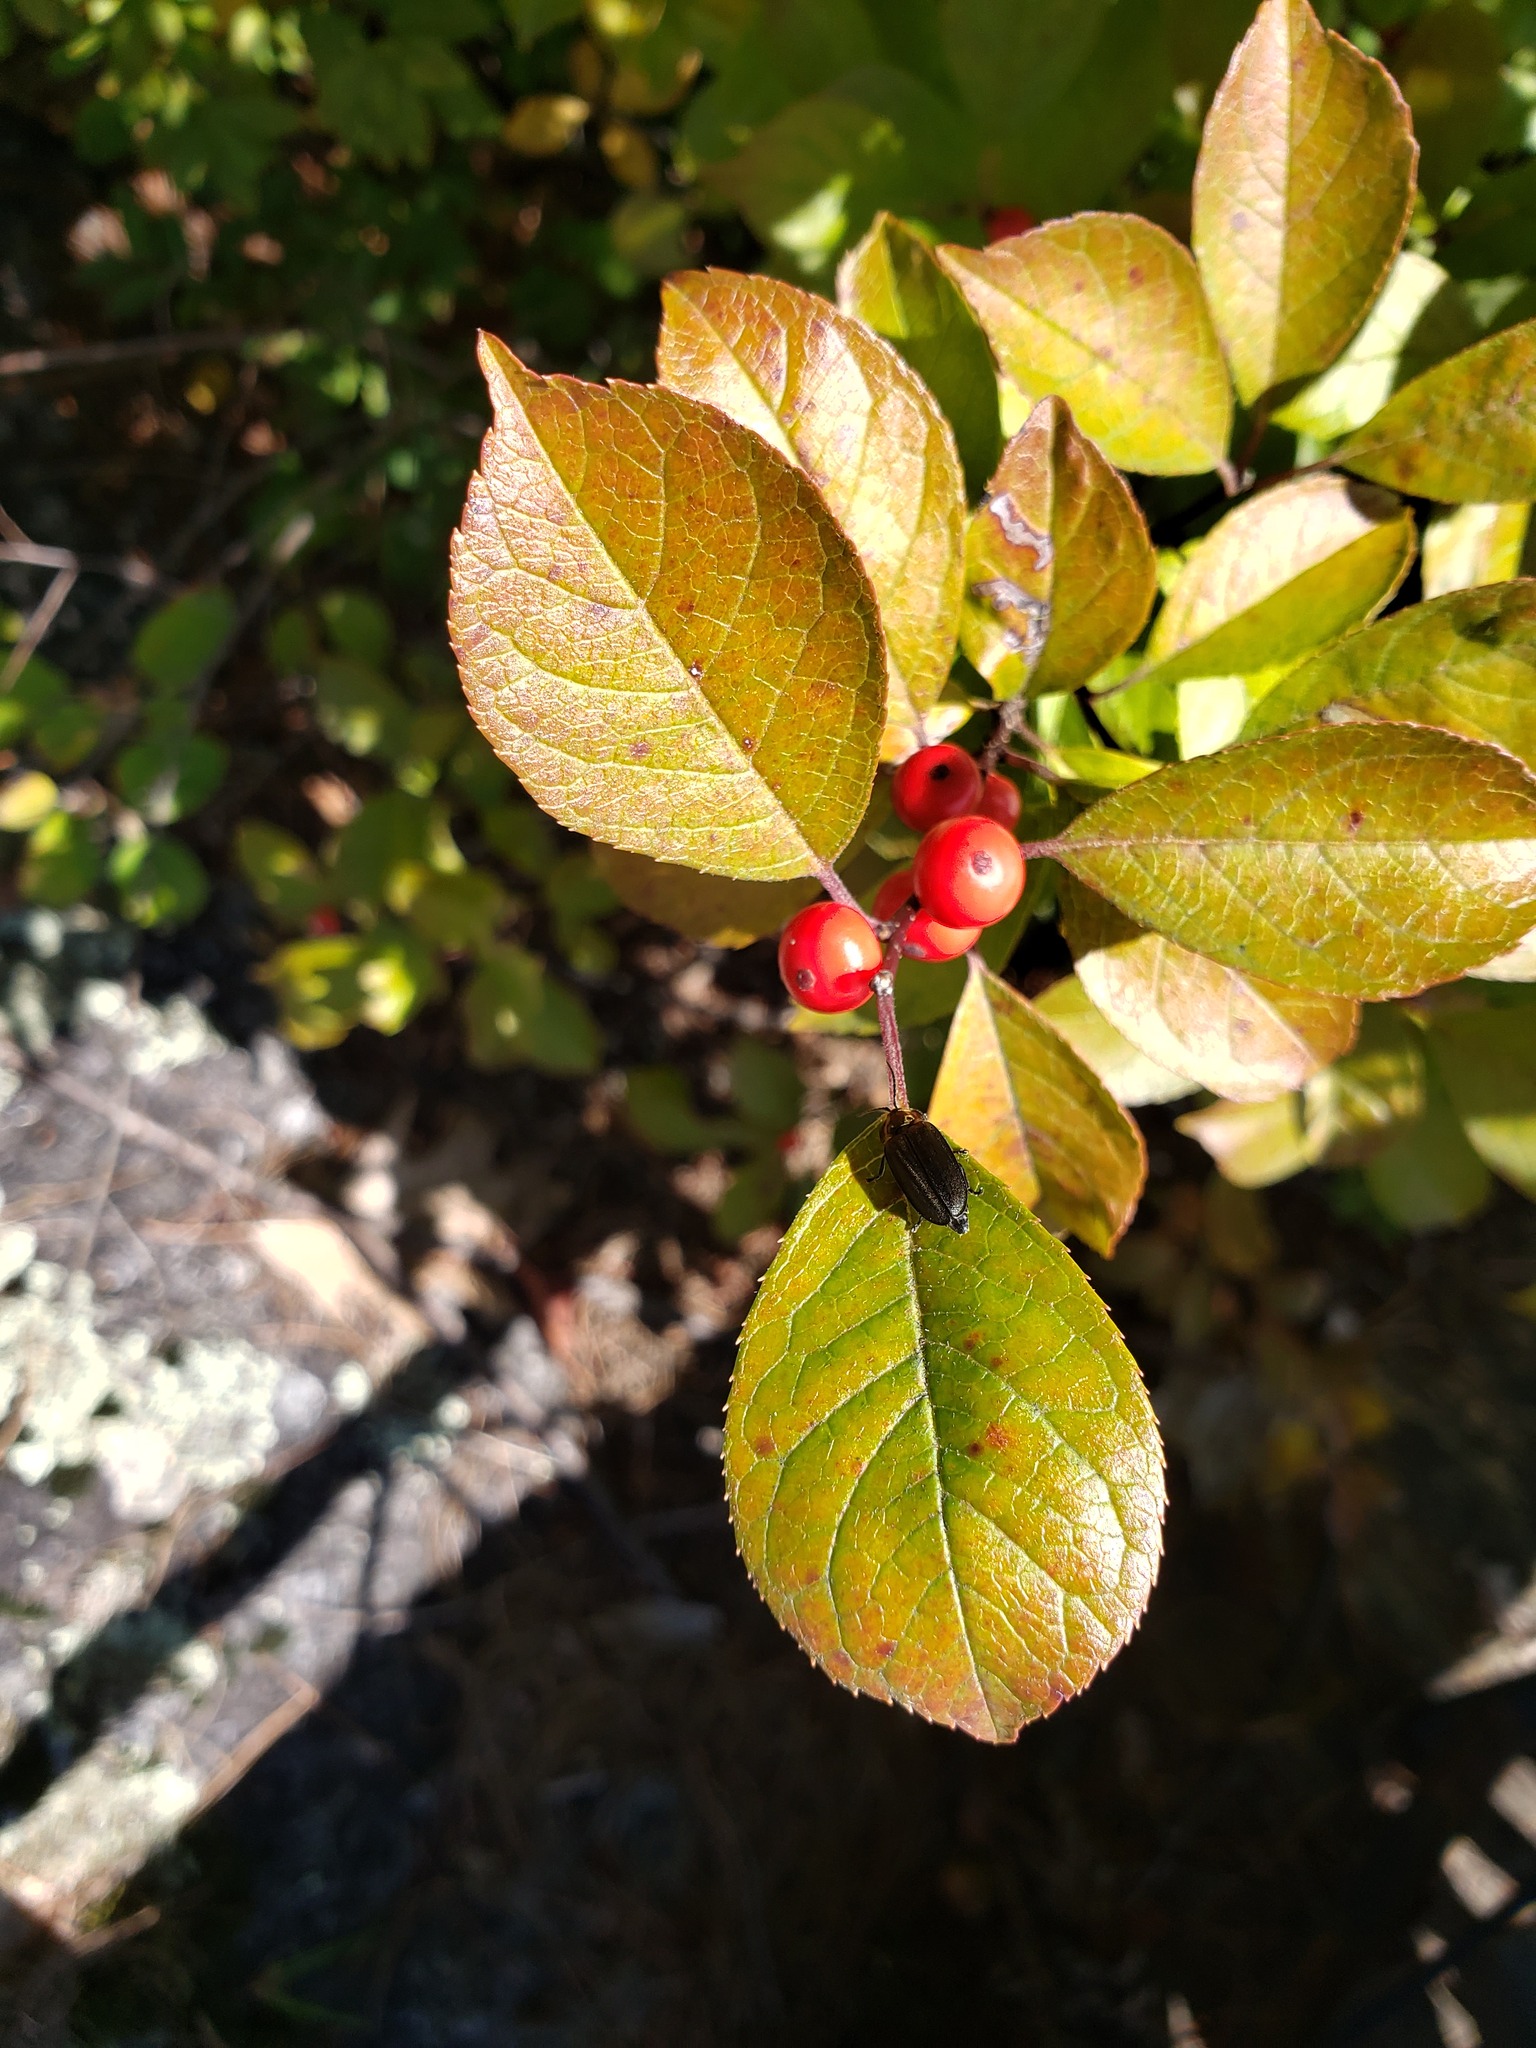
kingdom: Plantae
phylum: Tracheophyta
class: Magnoliopsida
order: Aquifoliales
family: Aquifoliaceae
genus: Ilex
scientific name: Ilex verticillata
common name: Virginia winterberry
